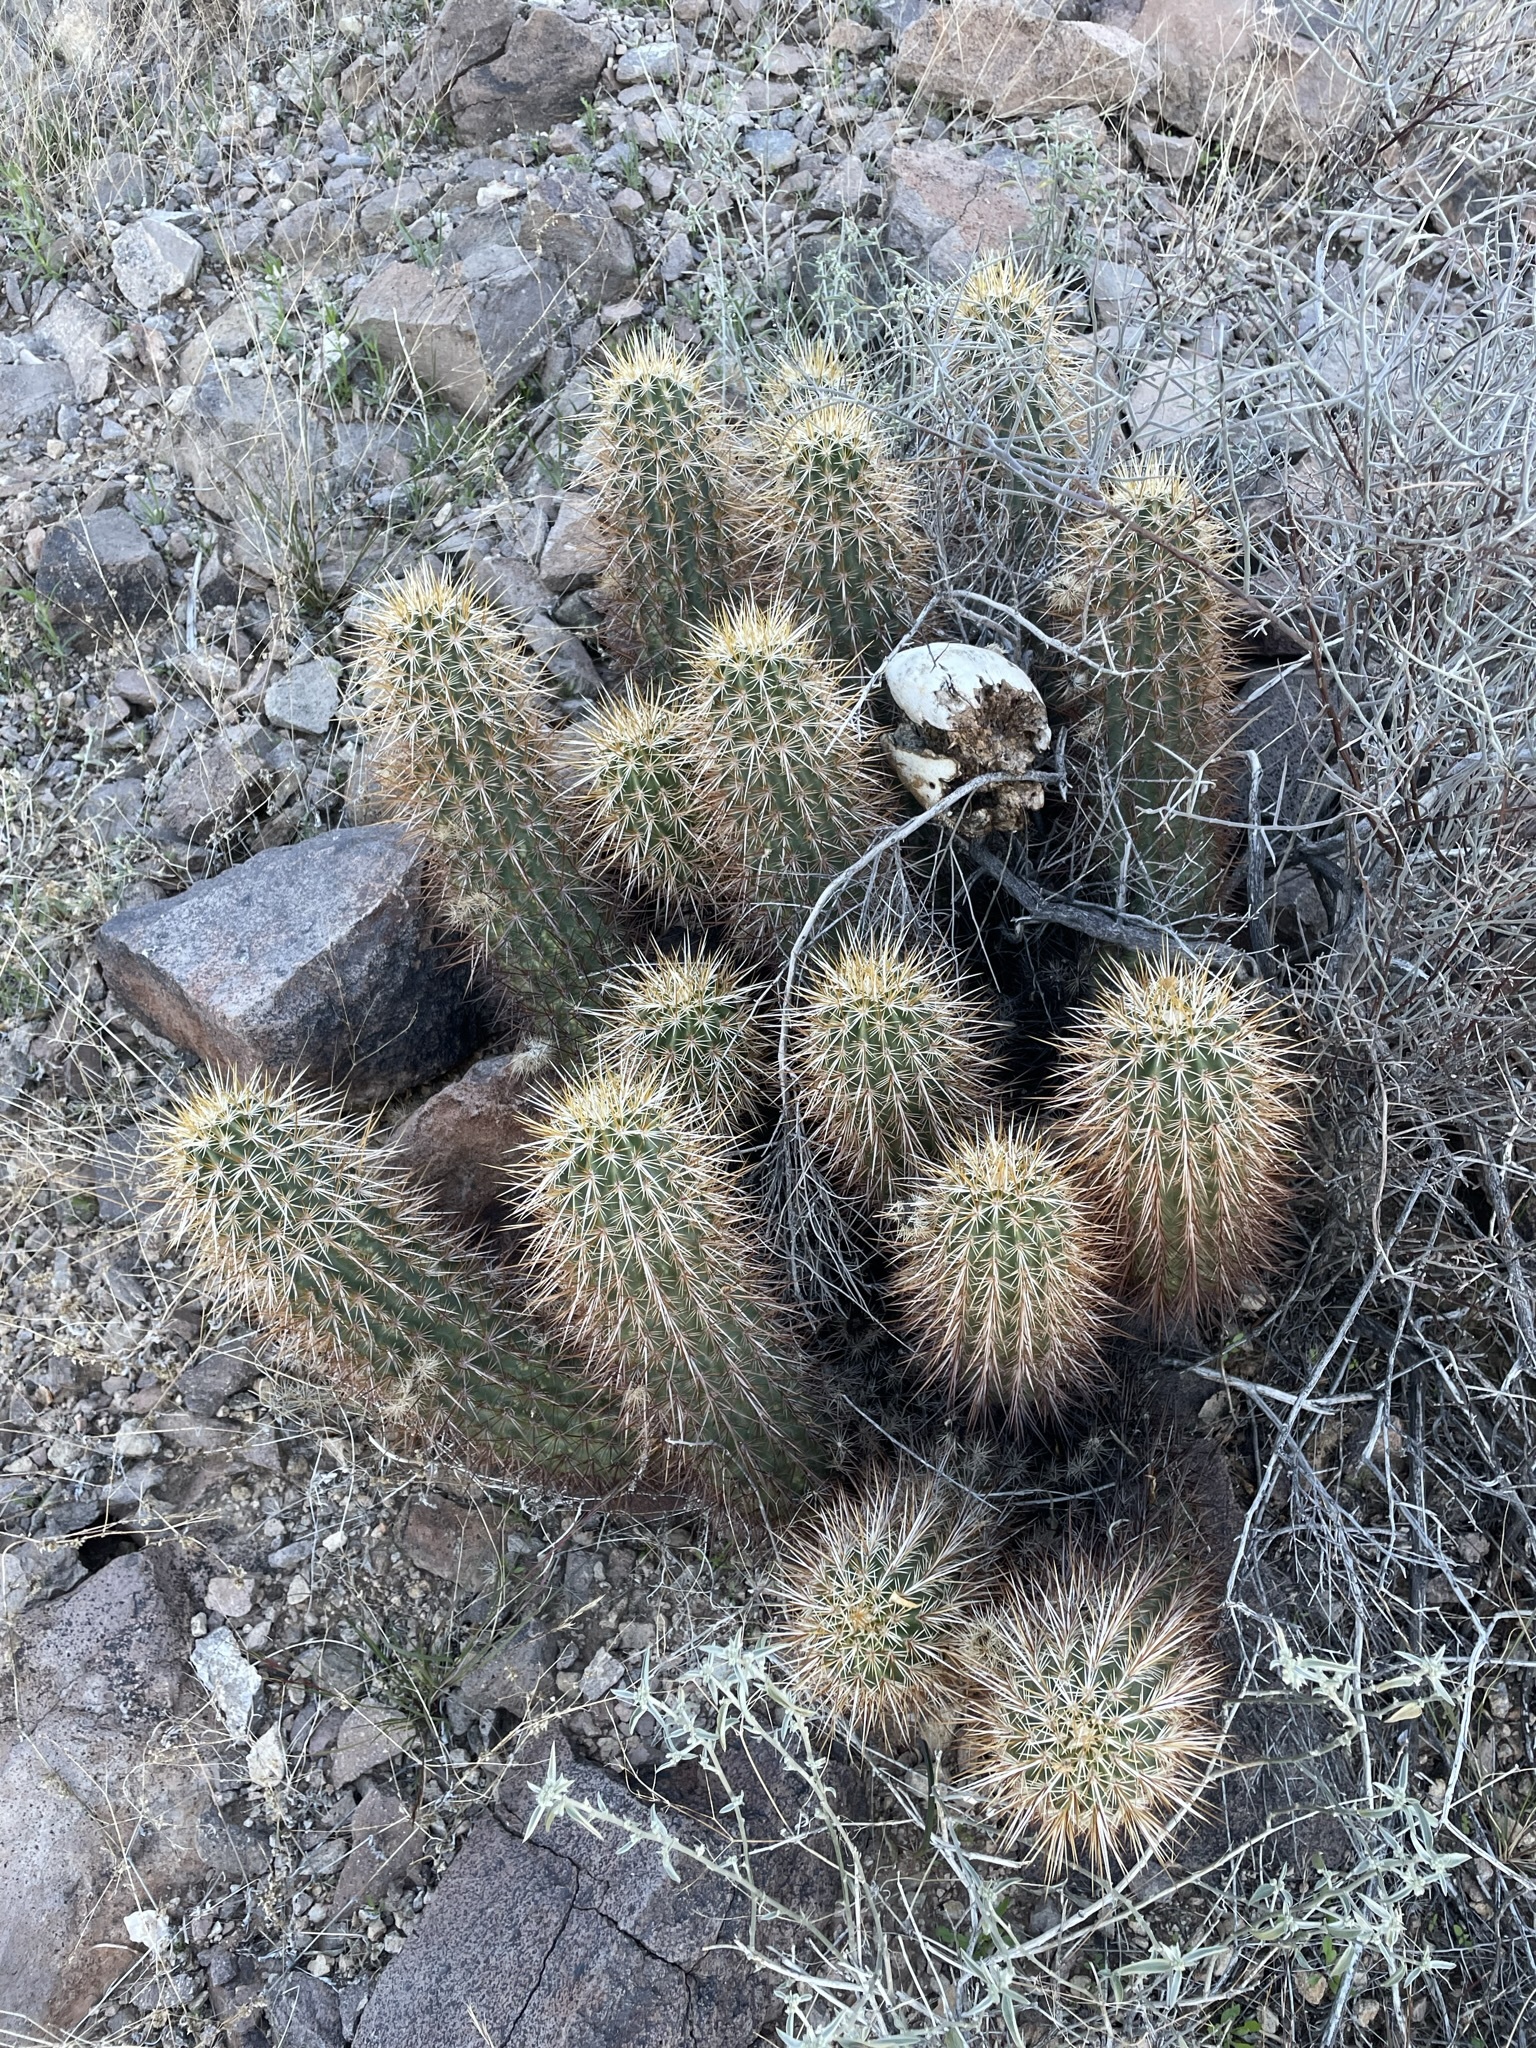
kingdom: Plantae
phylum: Tracheophyta
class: Magnoliopsida
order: Caryophyllales
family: Cactaceae
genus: Echinocereus
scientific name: Echinocereus engelmannii
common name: Engelmann's hedgehog cactus
